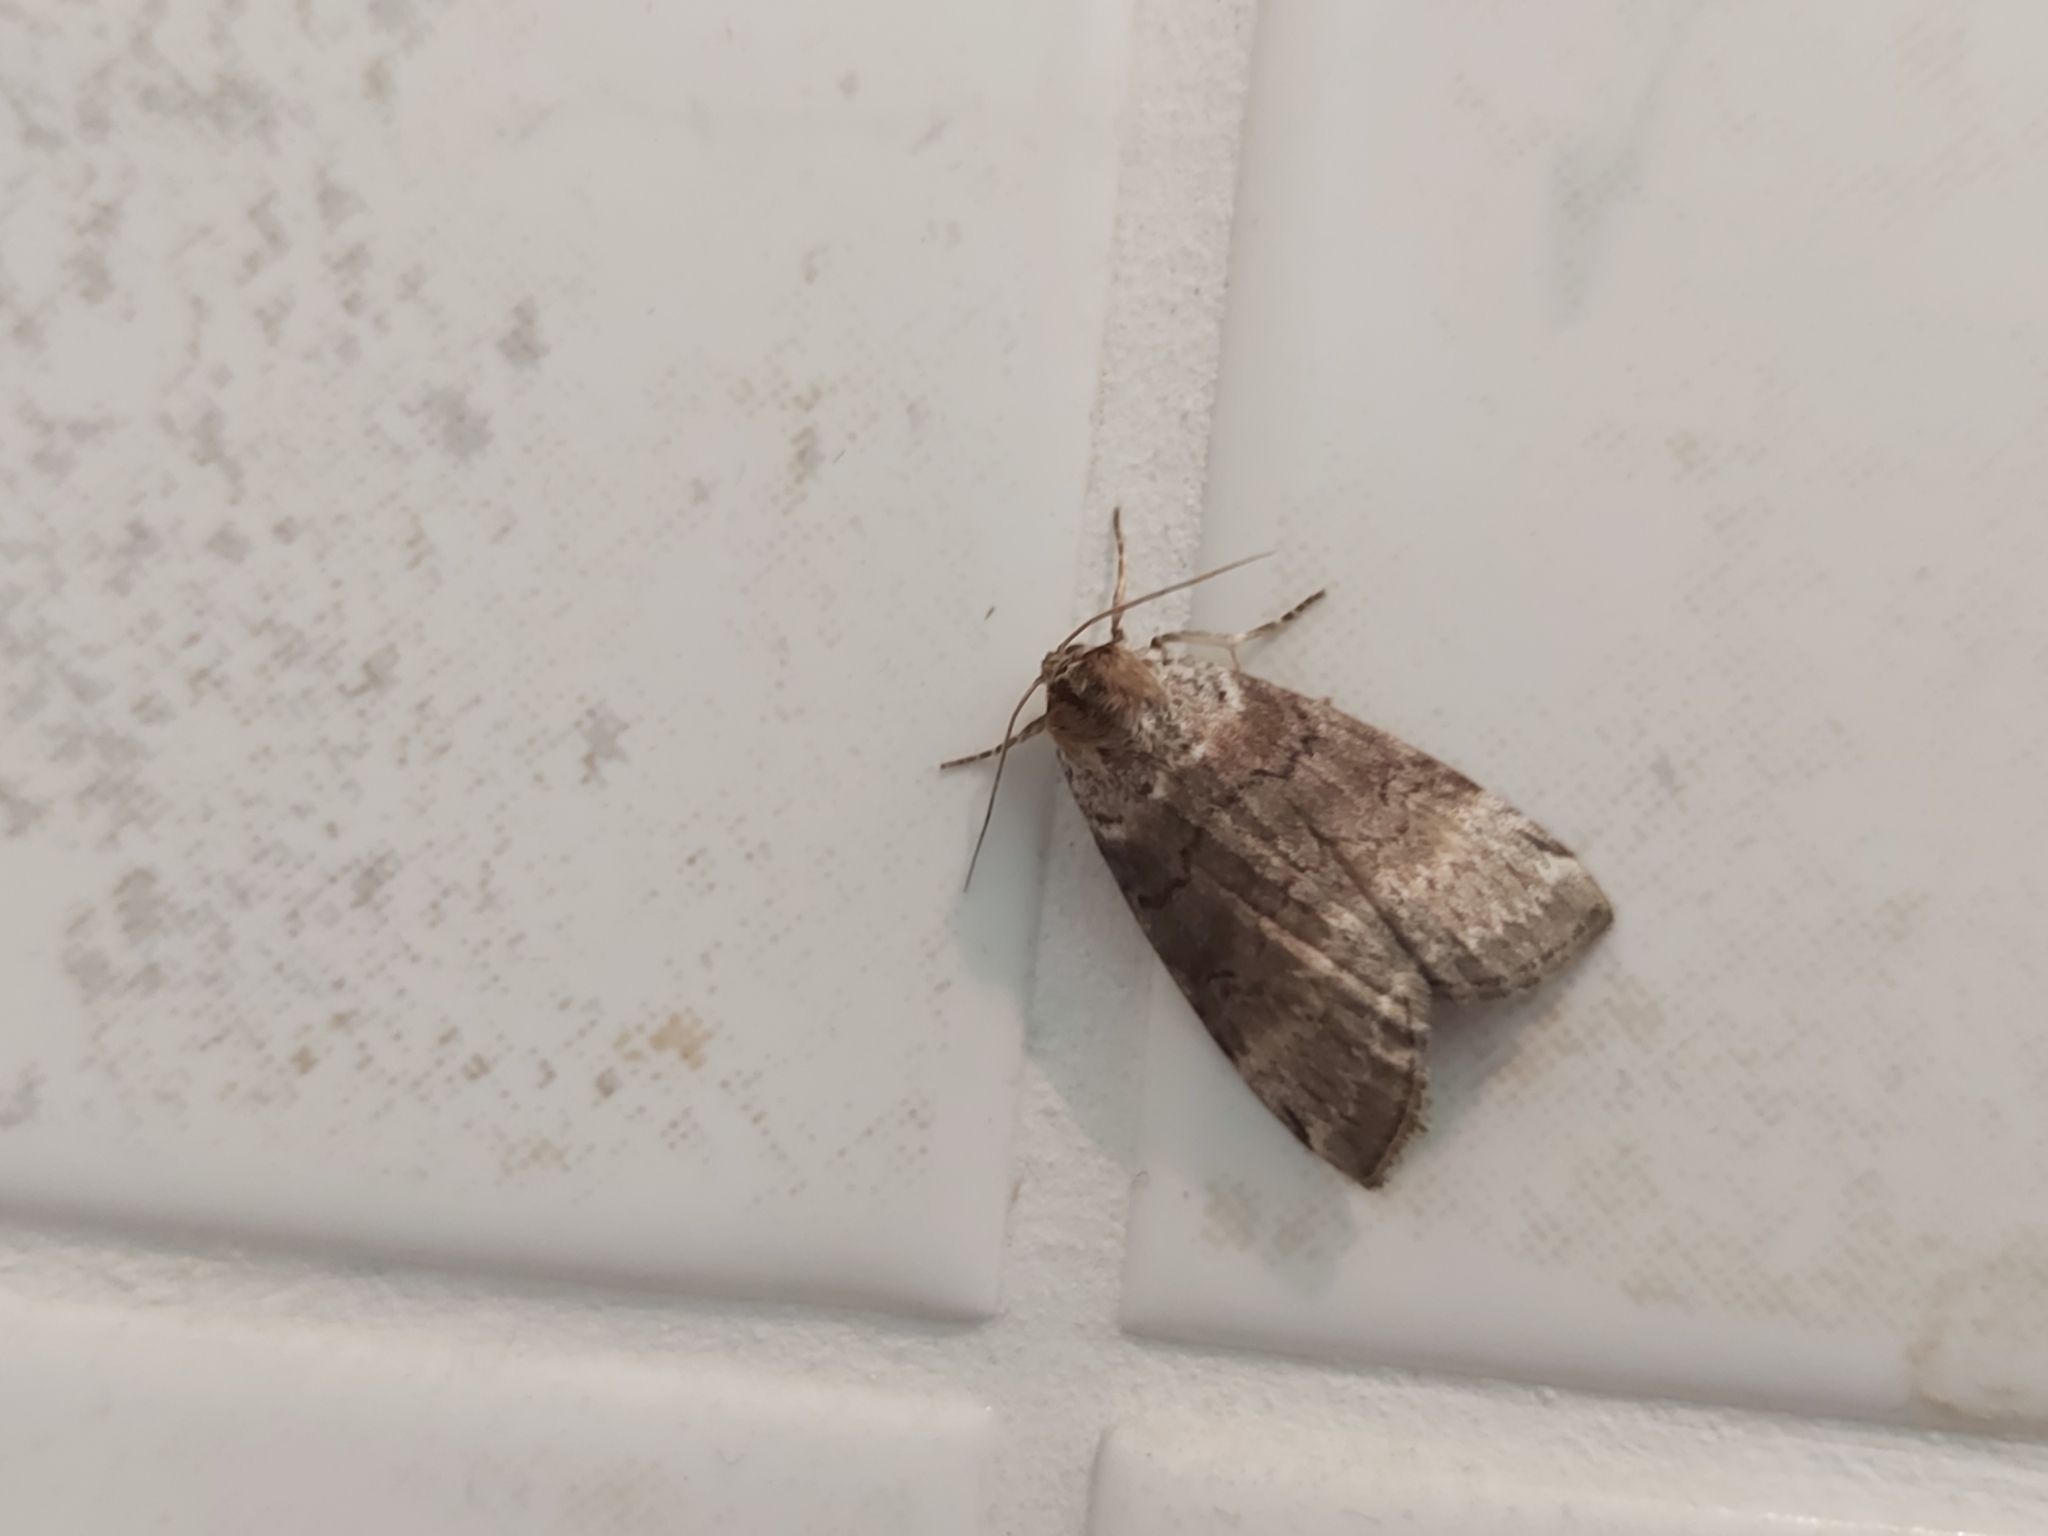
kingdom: Animalia
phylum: Arthropoda
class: Insecta
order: Lepidoptera
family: Drepanidae
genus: Tetheella
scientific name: Tetheella fluctuosa
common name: Satin lutestring
